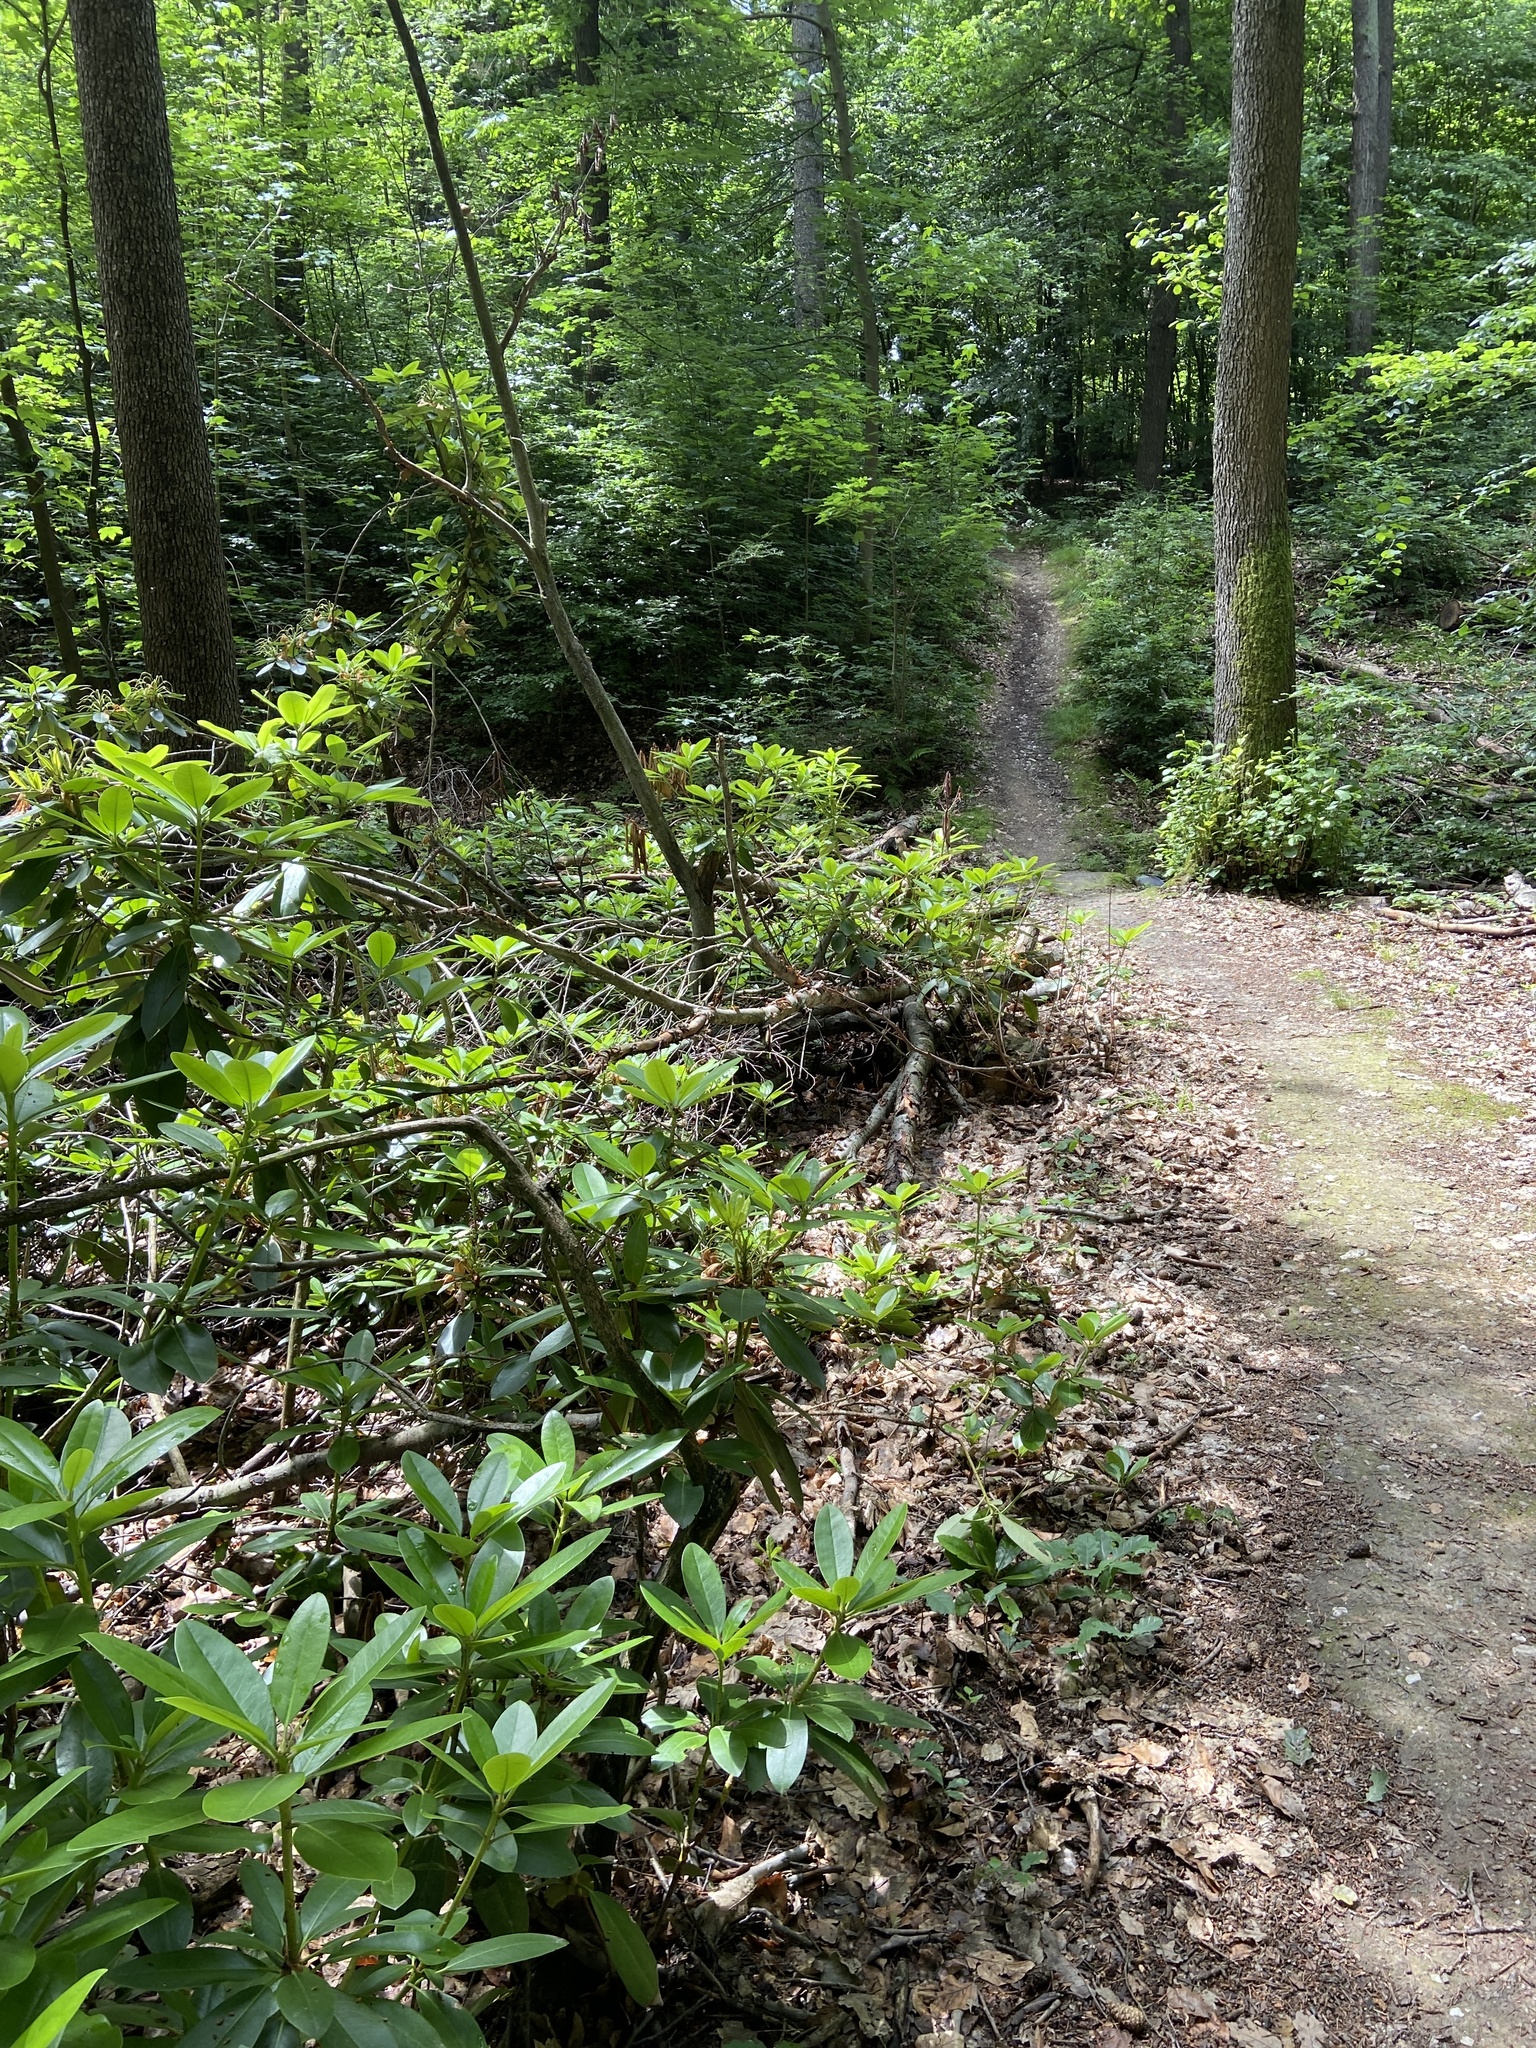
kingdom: Plantae
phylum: Tracheophyta
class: Magnoliopsida
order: Ericales
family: Ericaceae
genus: Rhododendron
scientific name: Rhododendron ponticum
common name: Rhododendron
